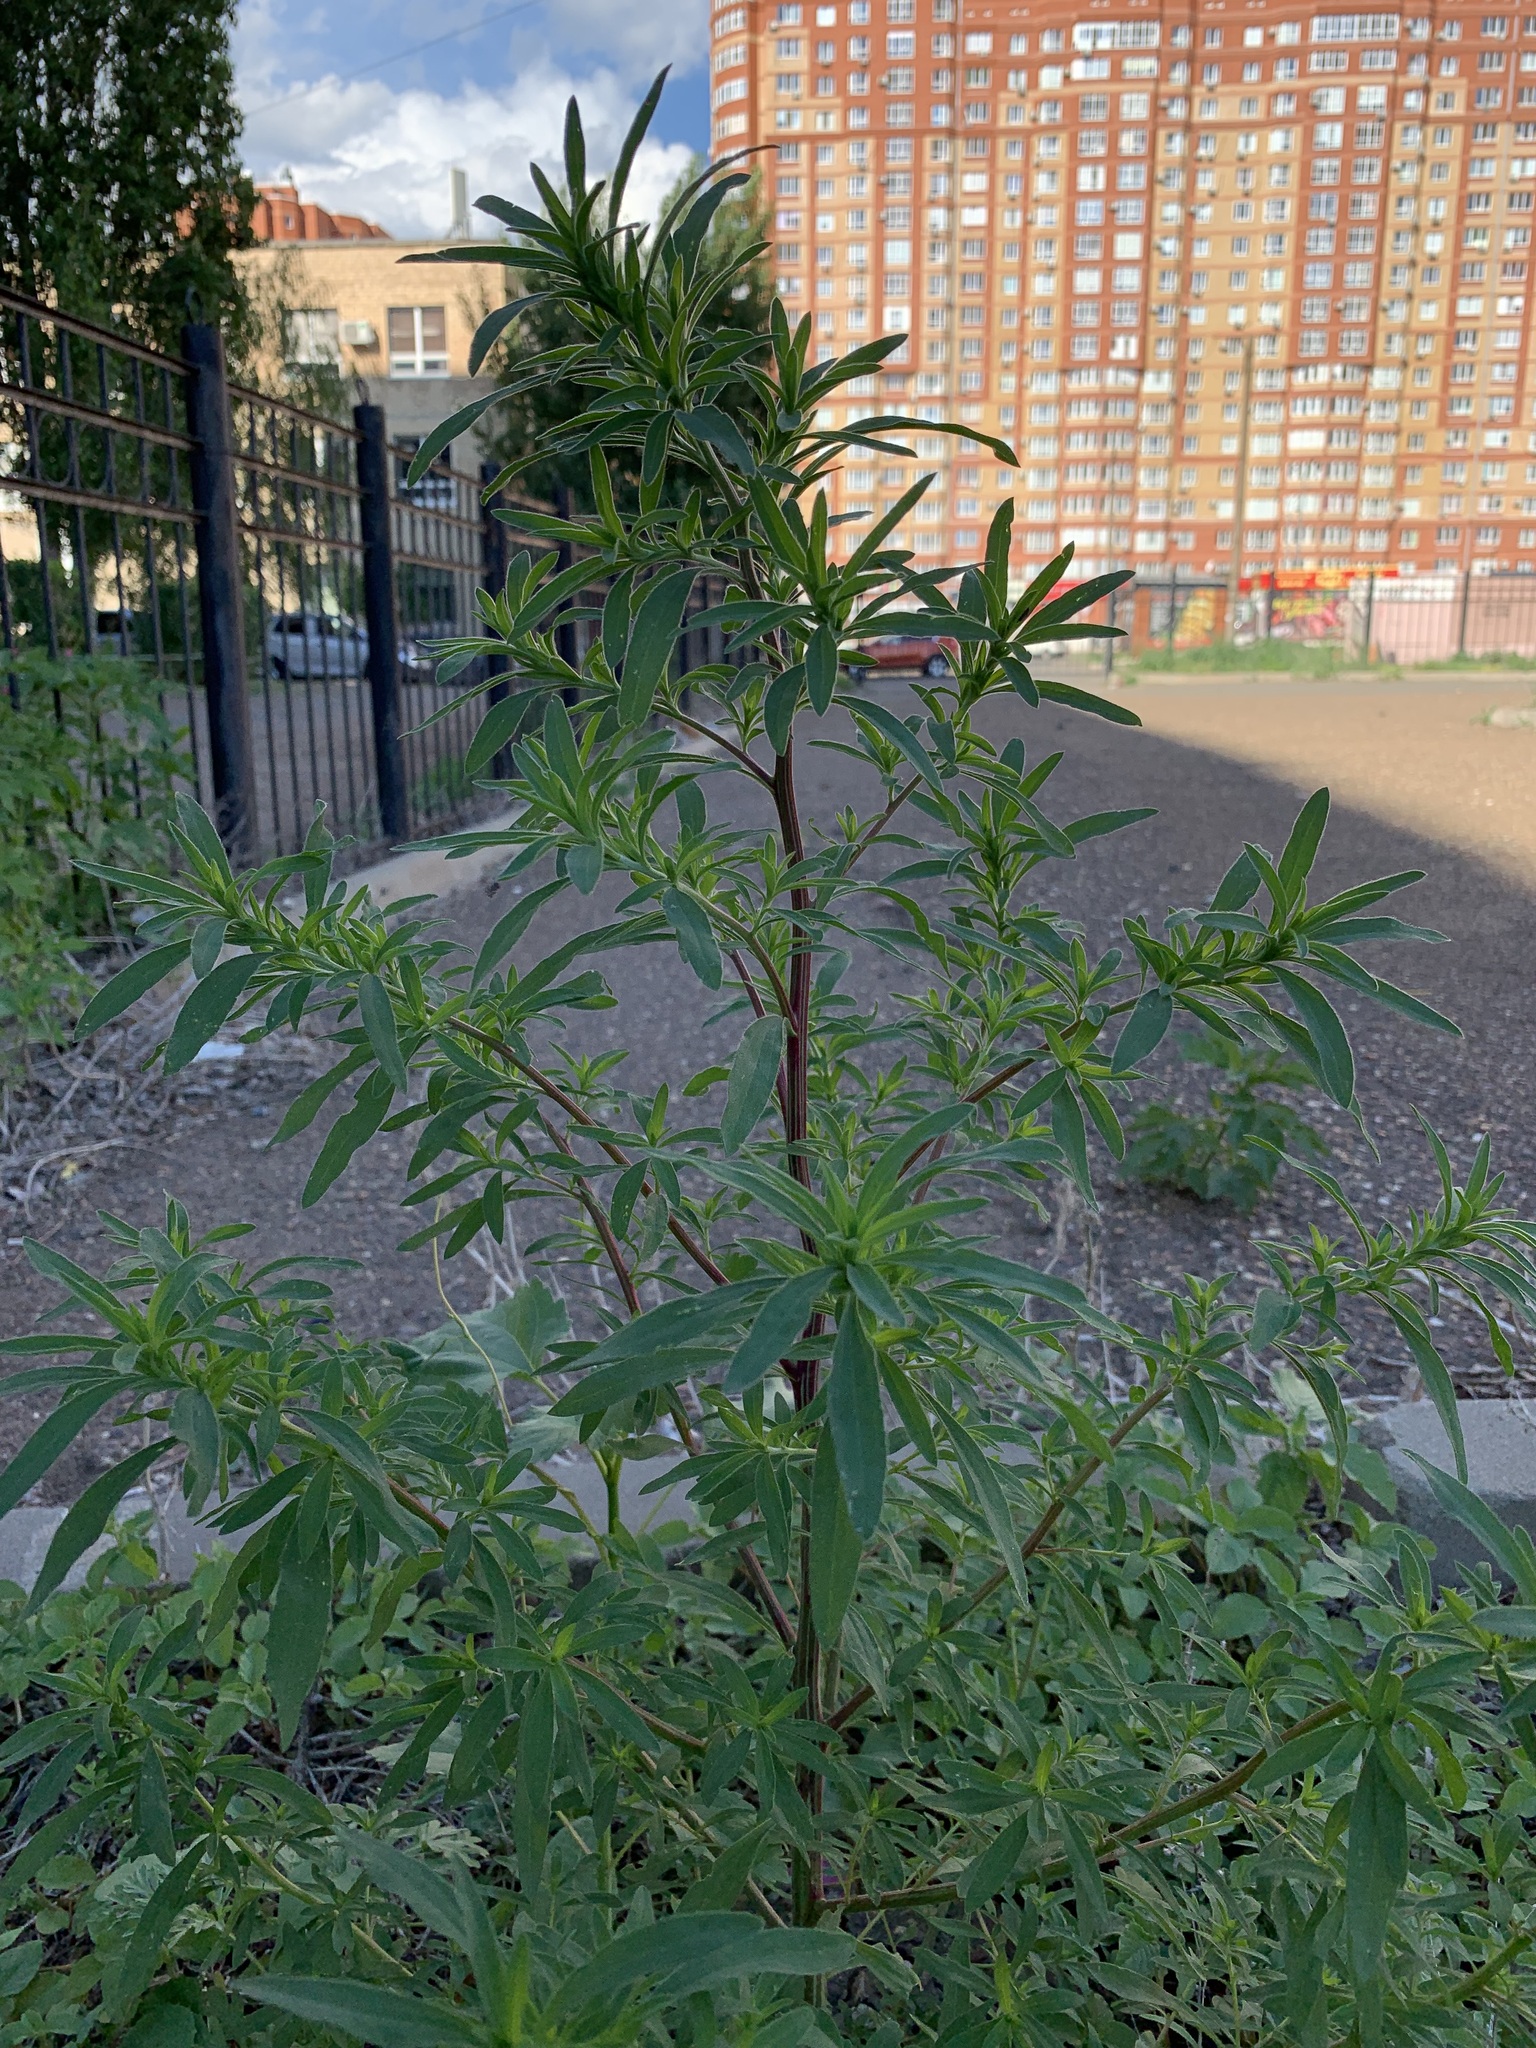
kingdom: Plantae
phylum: Tracheophyta
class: Magnoliopsida
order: Caryophyllales
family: Amaranthaceae
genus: Bassia
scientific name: Bassia scoparia
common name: Belvedere
